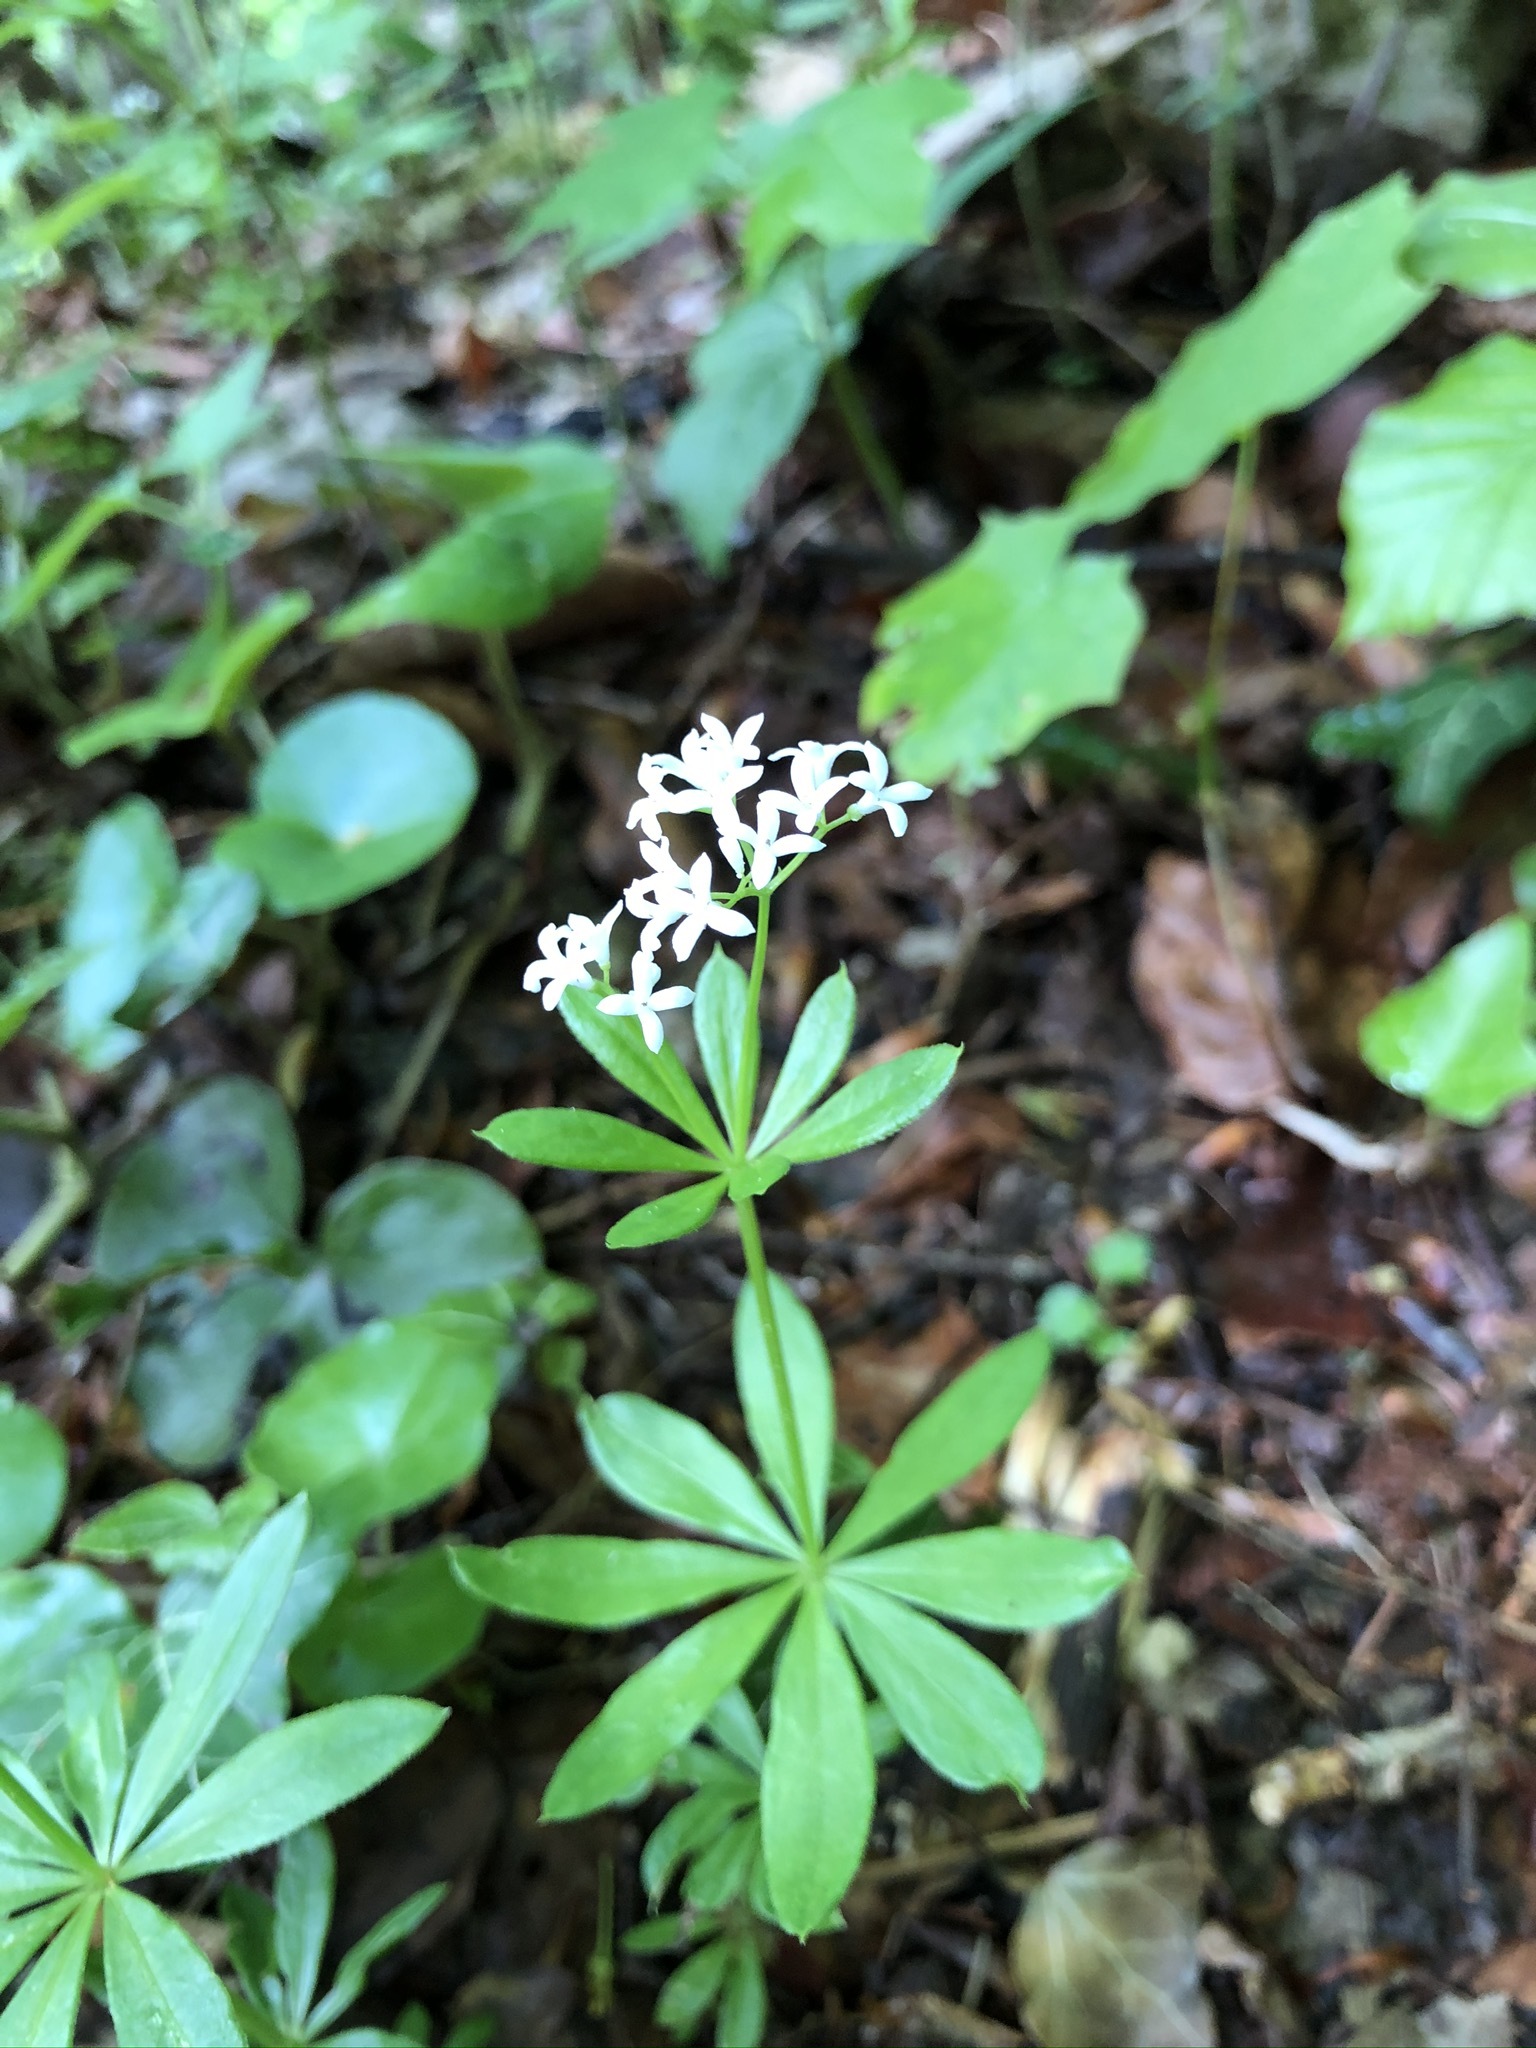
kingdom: Plantae
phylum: Tracheophyta
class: Magnoliopsida
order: Gentianales
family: Rubiaceae
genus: Galium
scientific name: Galium odoratum
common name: Sweet woodruff
